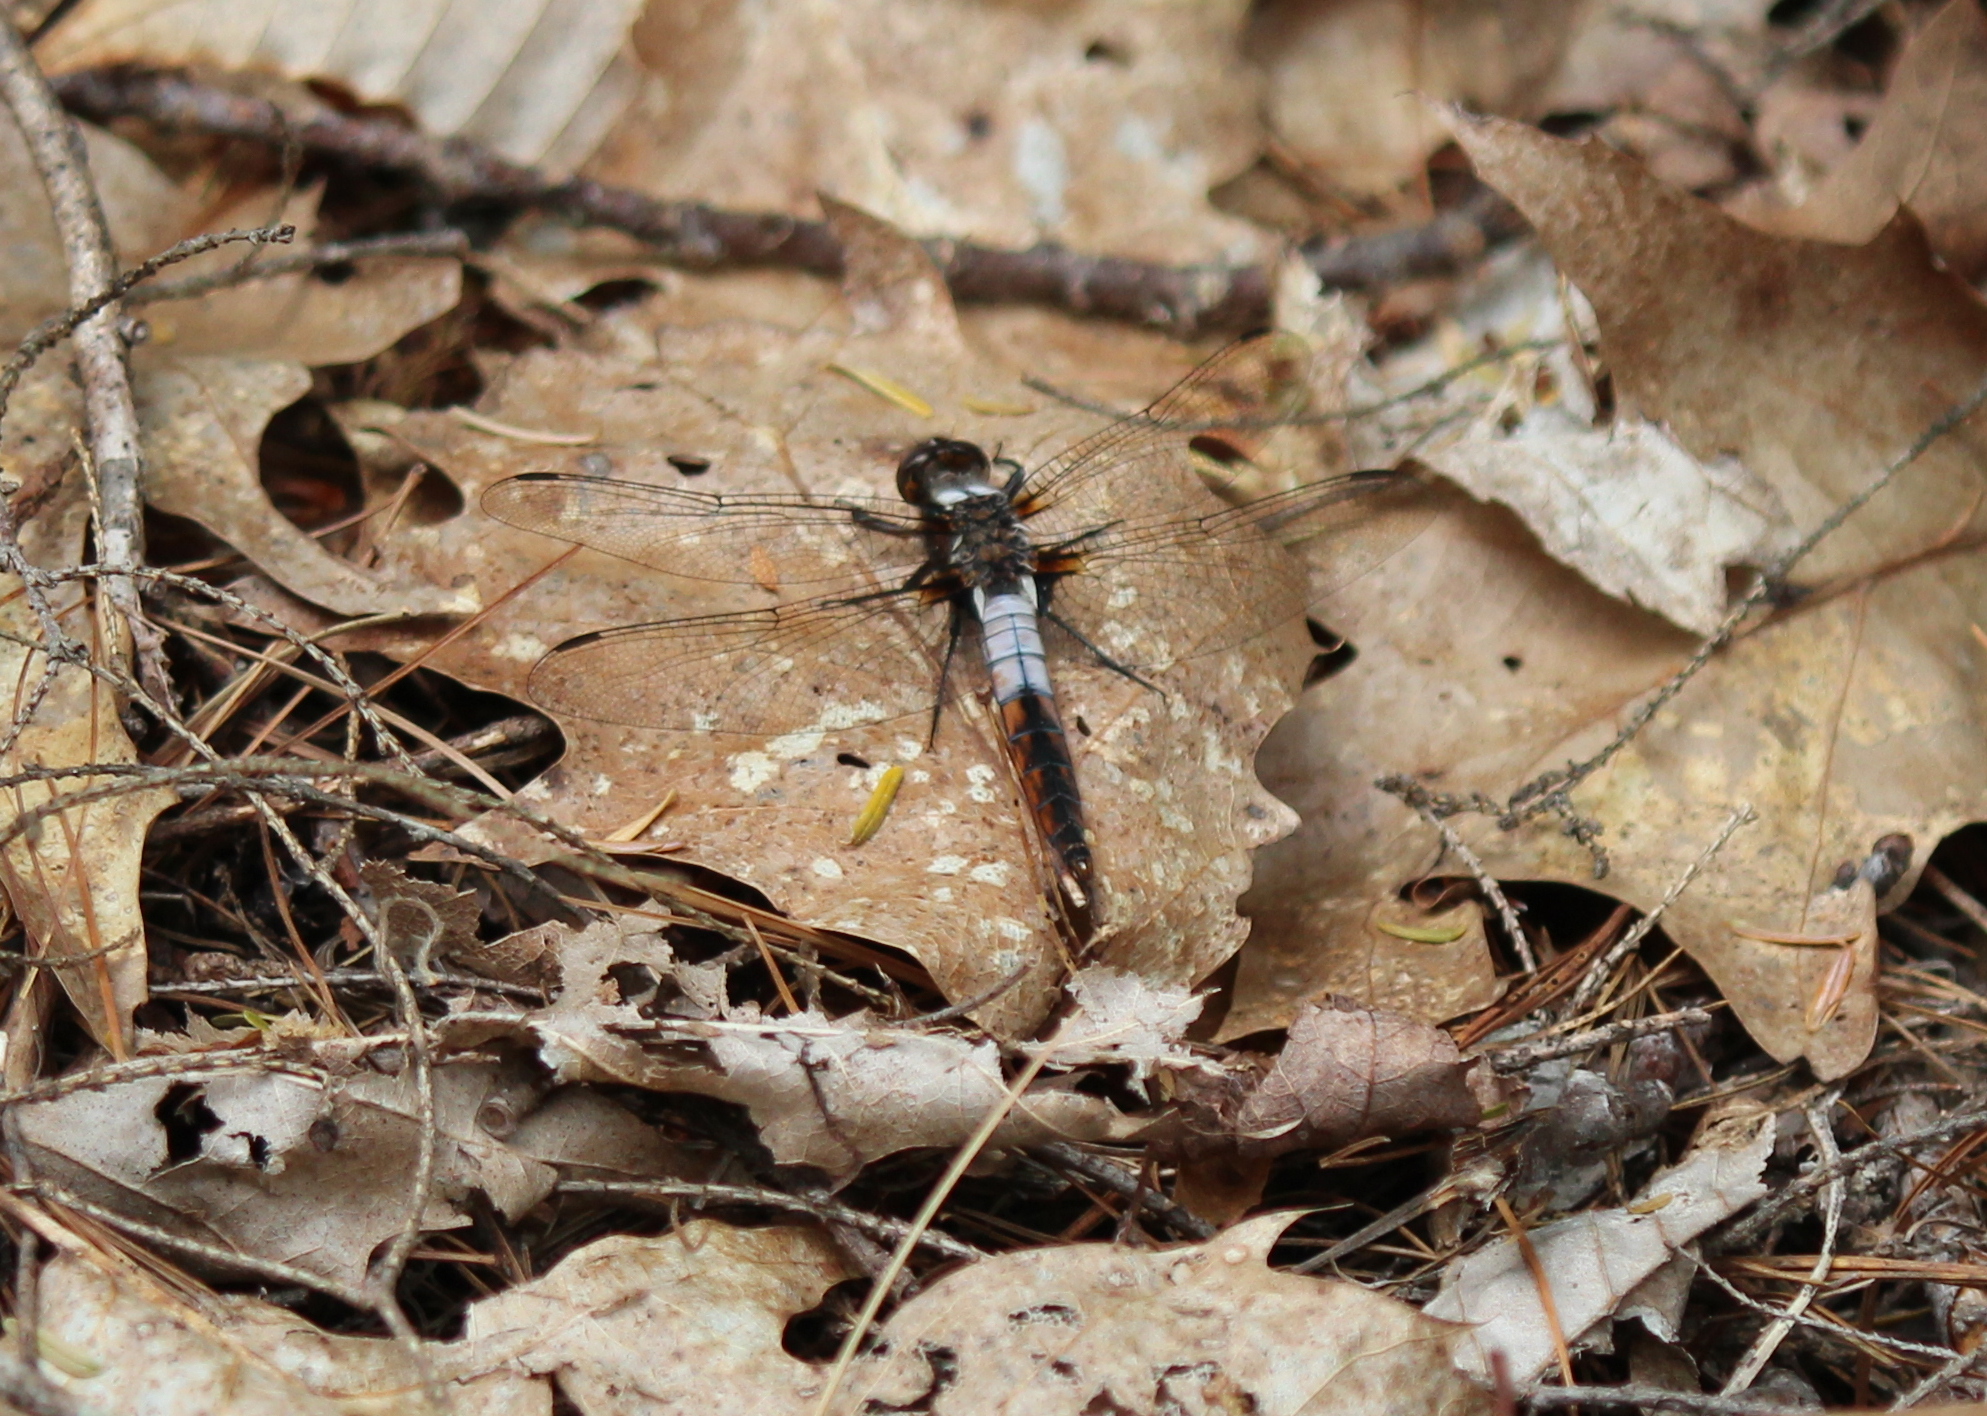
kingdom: Animalia
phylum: Arthropoda
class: Insecta
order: Odonata
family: Libellulidae
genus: Ladona
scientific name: Ladona julia
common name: Chalk-fronted corporal
